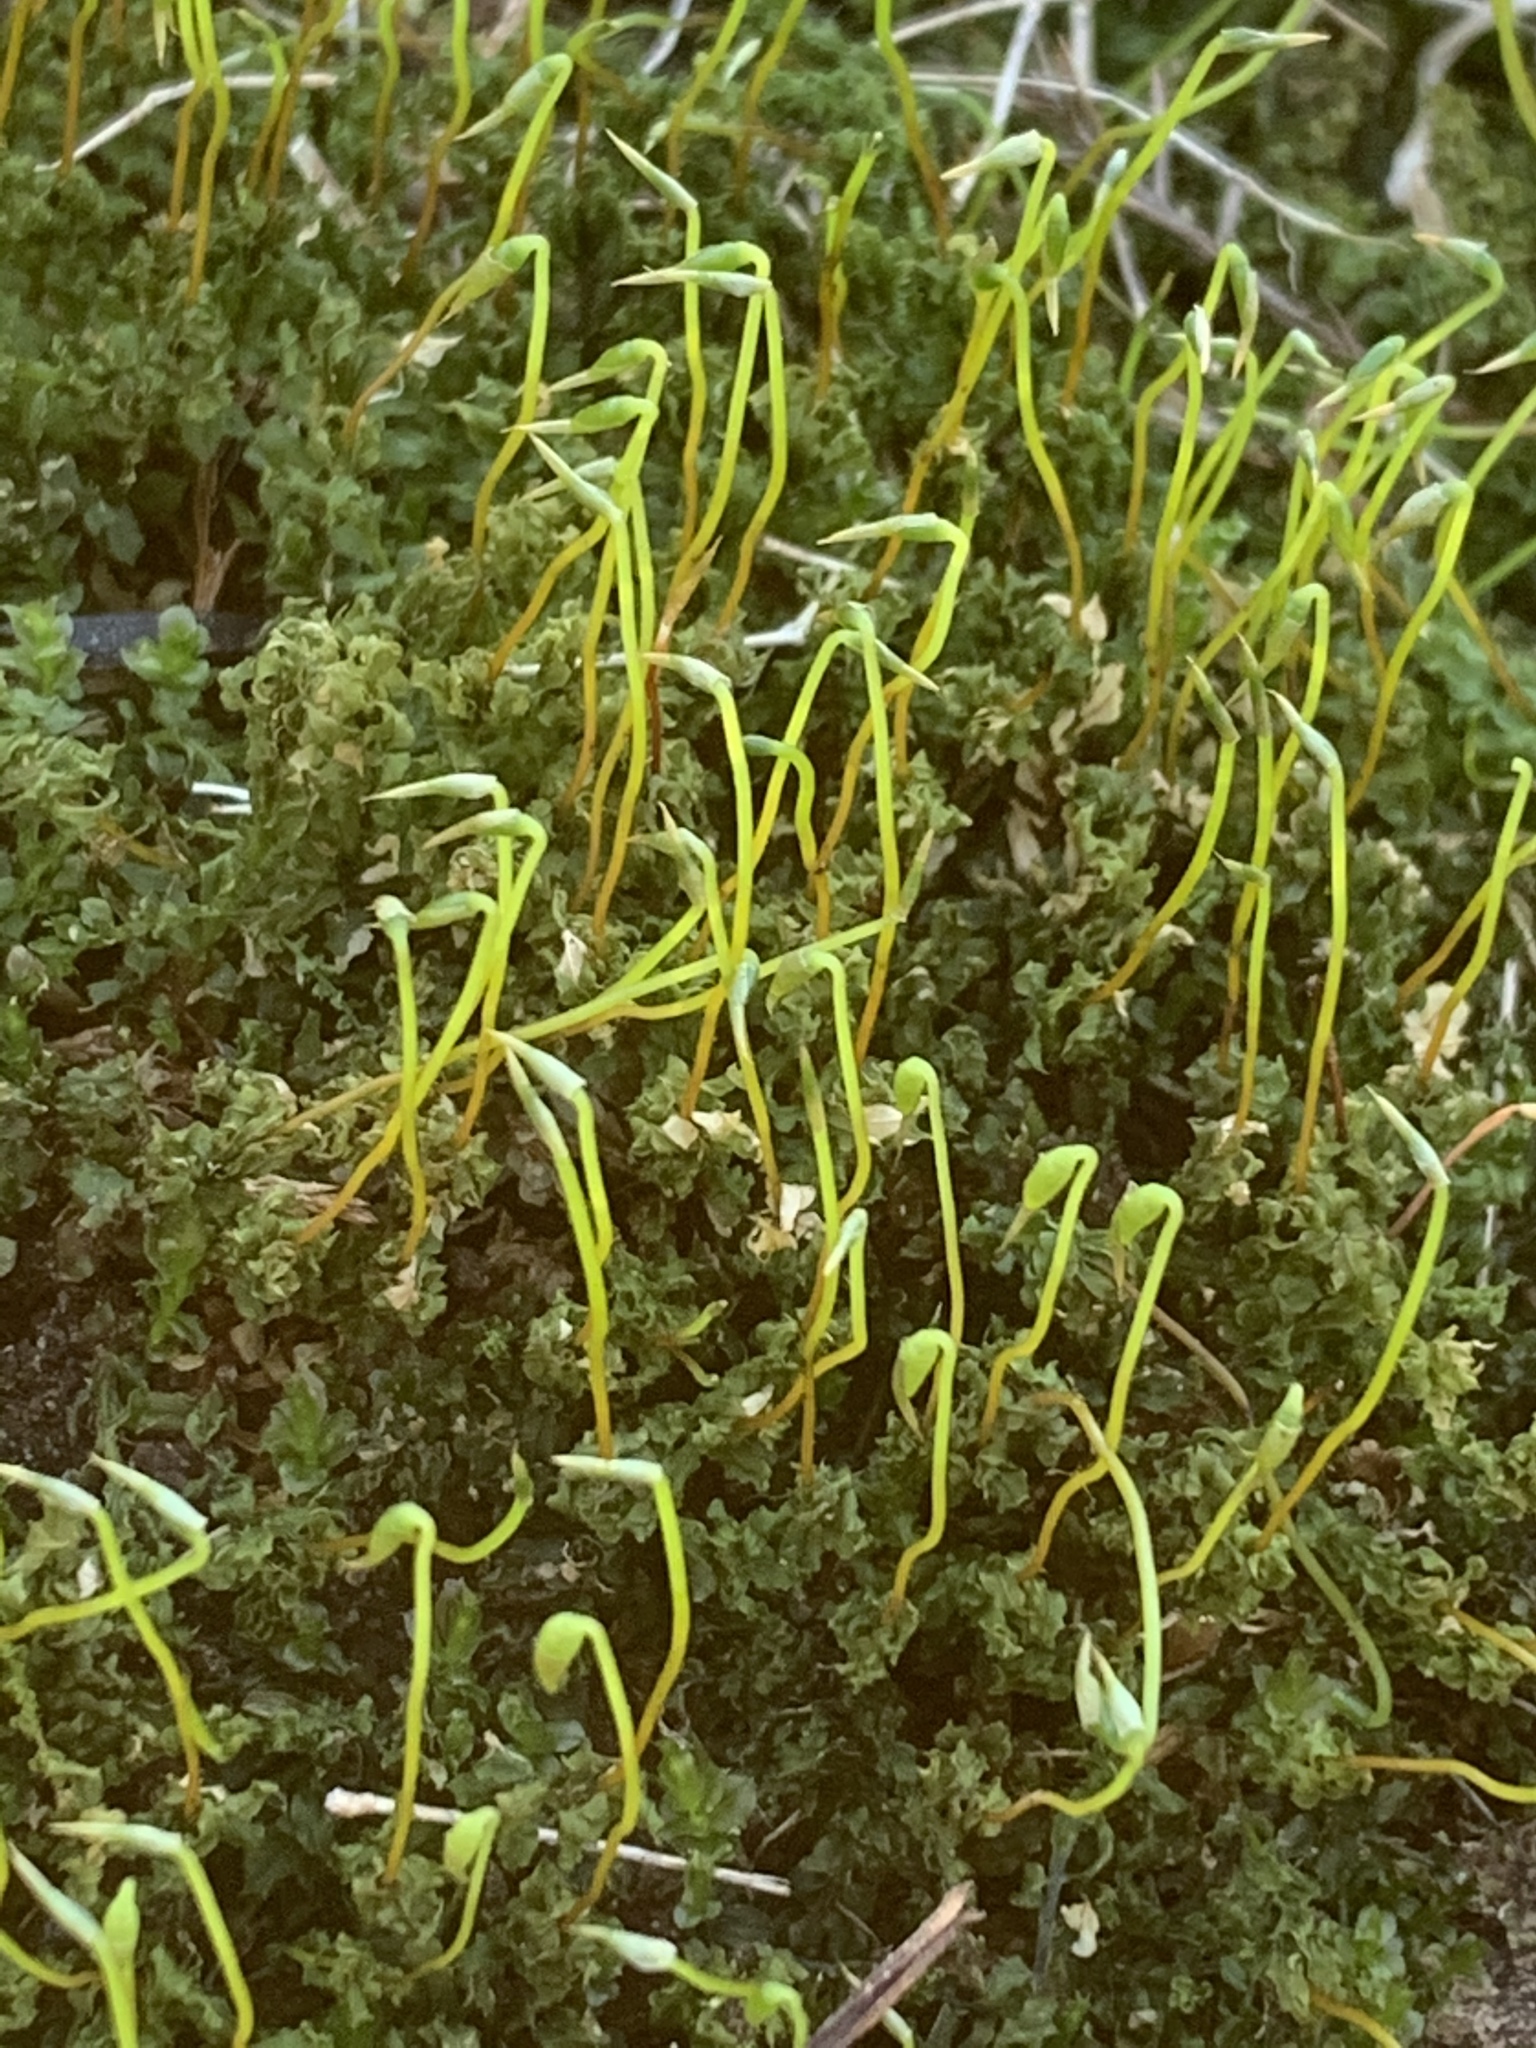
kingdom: Plantae
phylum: Bryophyta
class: Bryopsida
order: Bryales
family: Mniaceae
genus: Plagiomnium
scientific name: Plagiomnium cuspidatum
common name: Woodsy leafy moss
